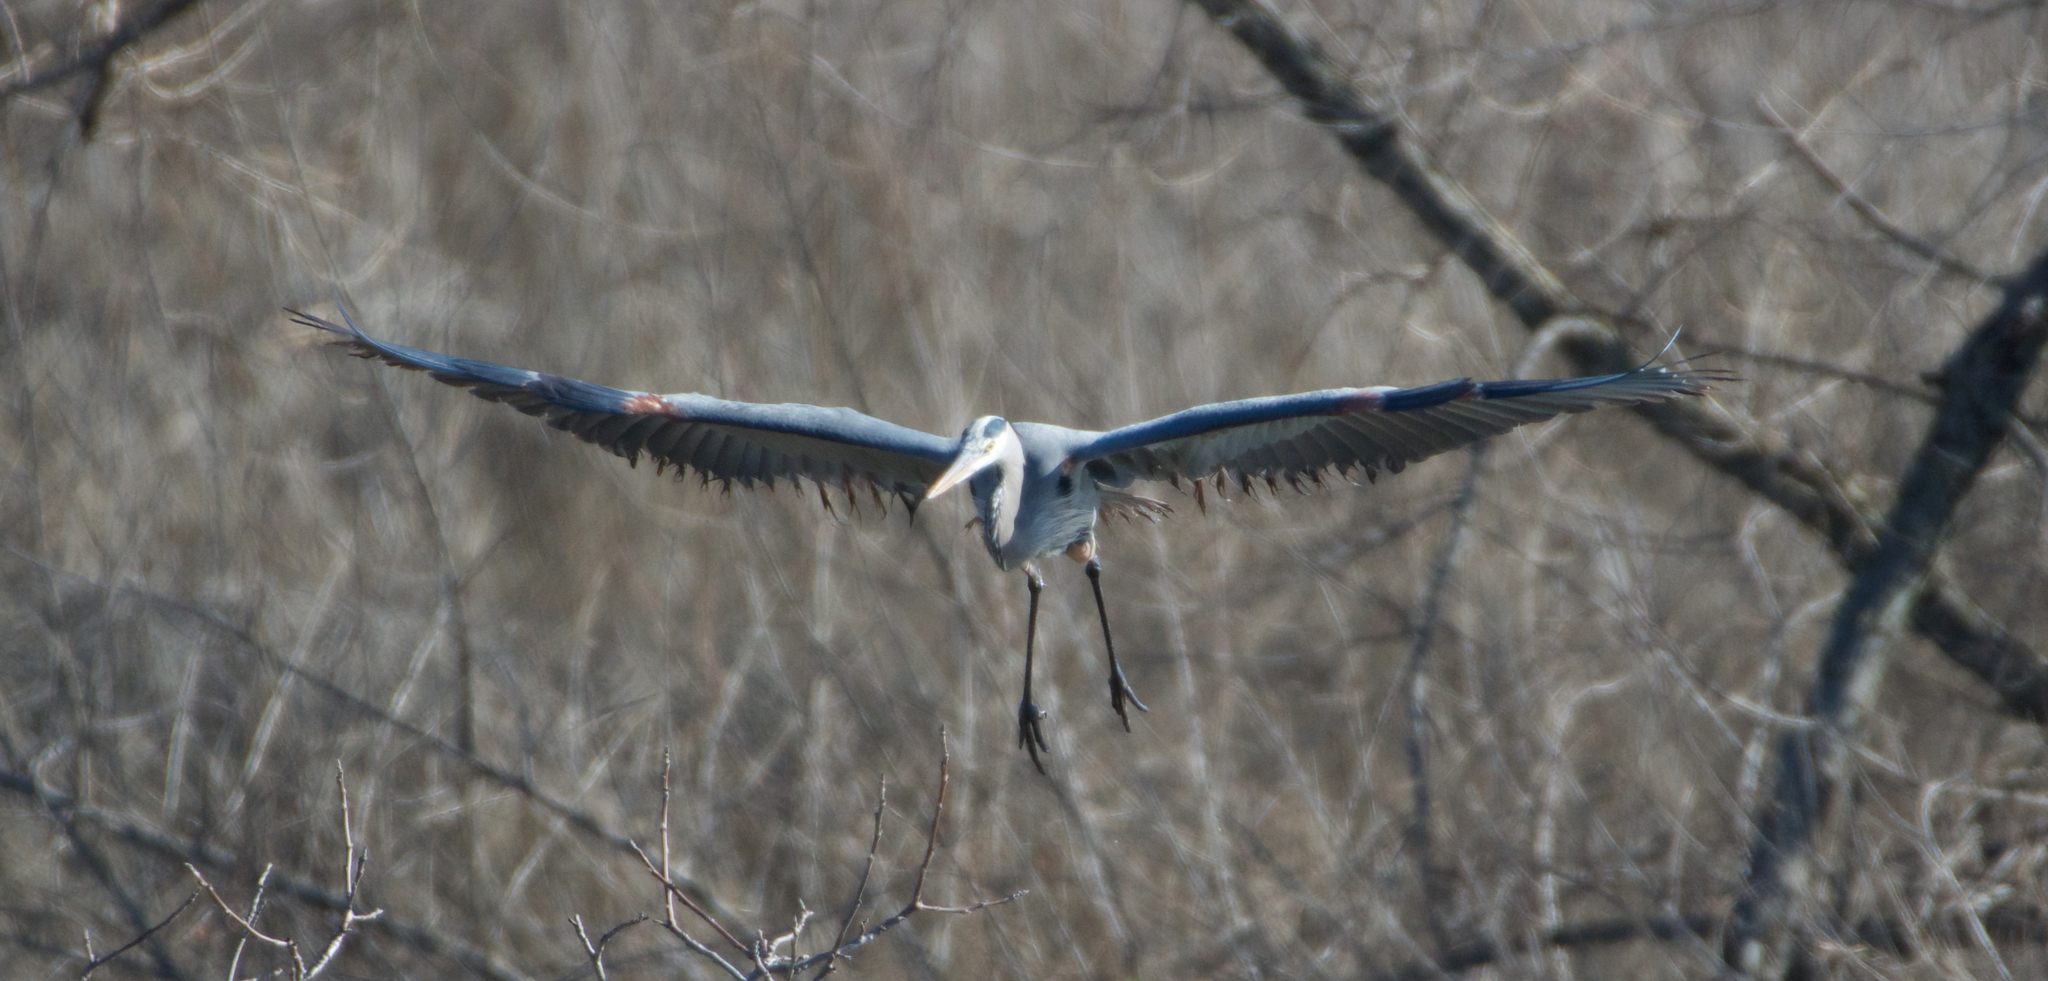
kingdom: Animalia
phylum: Chordata
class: Aves
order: Pelecaniformes
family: Ardeidae
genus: Ardea
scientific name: Ardea herodias
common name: Great blue heron
